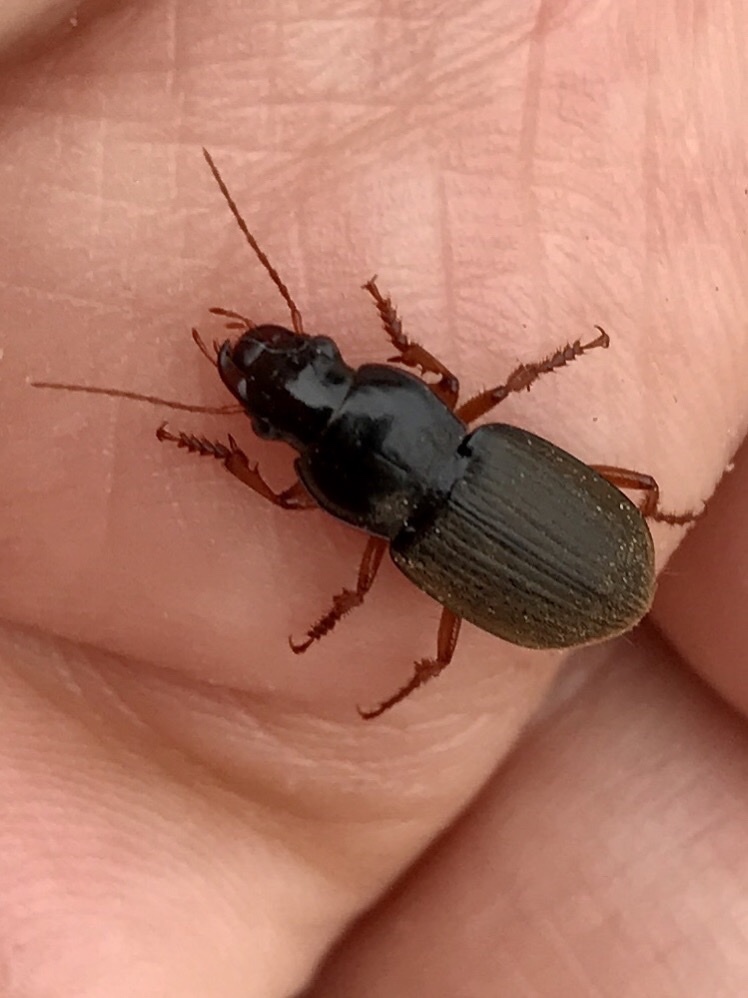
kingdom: Animalia
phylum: Arthropoda
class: Insecta
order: Coleoptera
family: Carabidae
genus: Harpalus
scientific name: Harpalus rufipes
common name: Strawberry harp ground beetle
